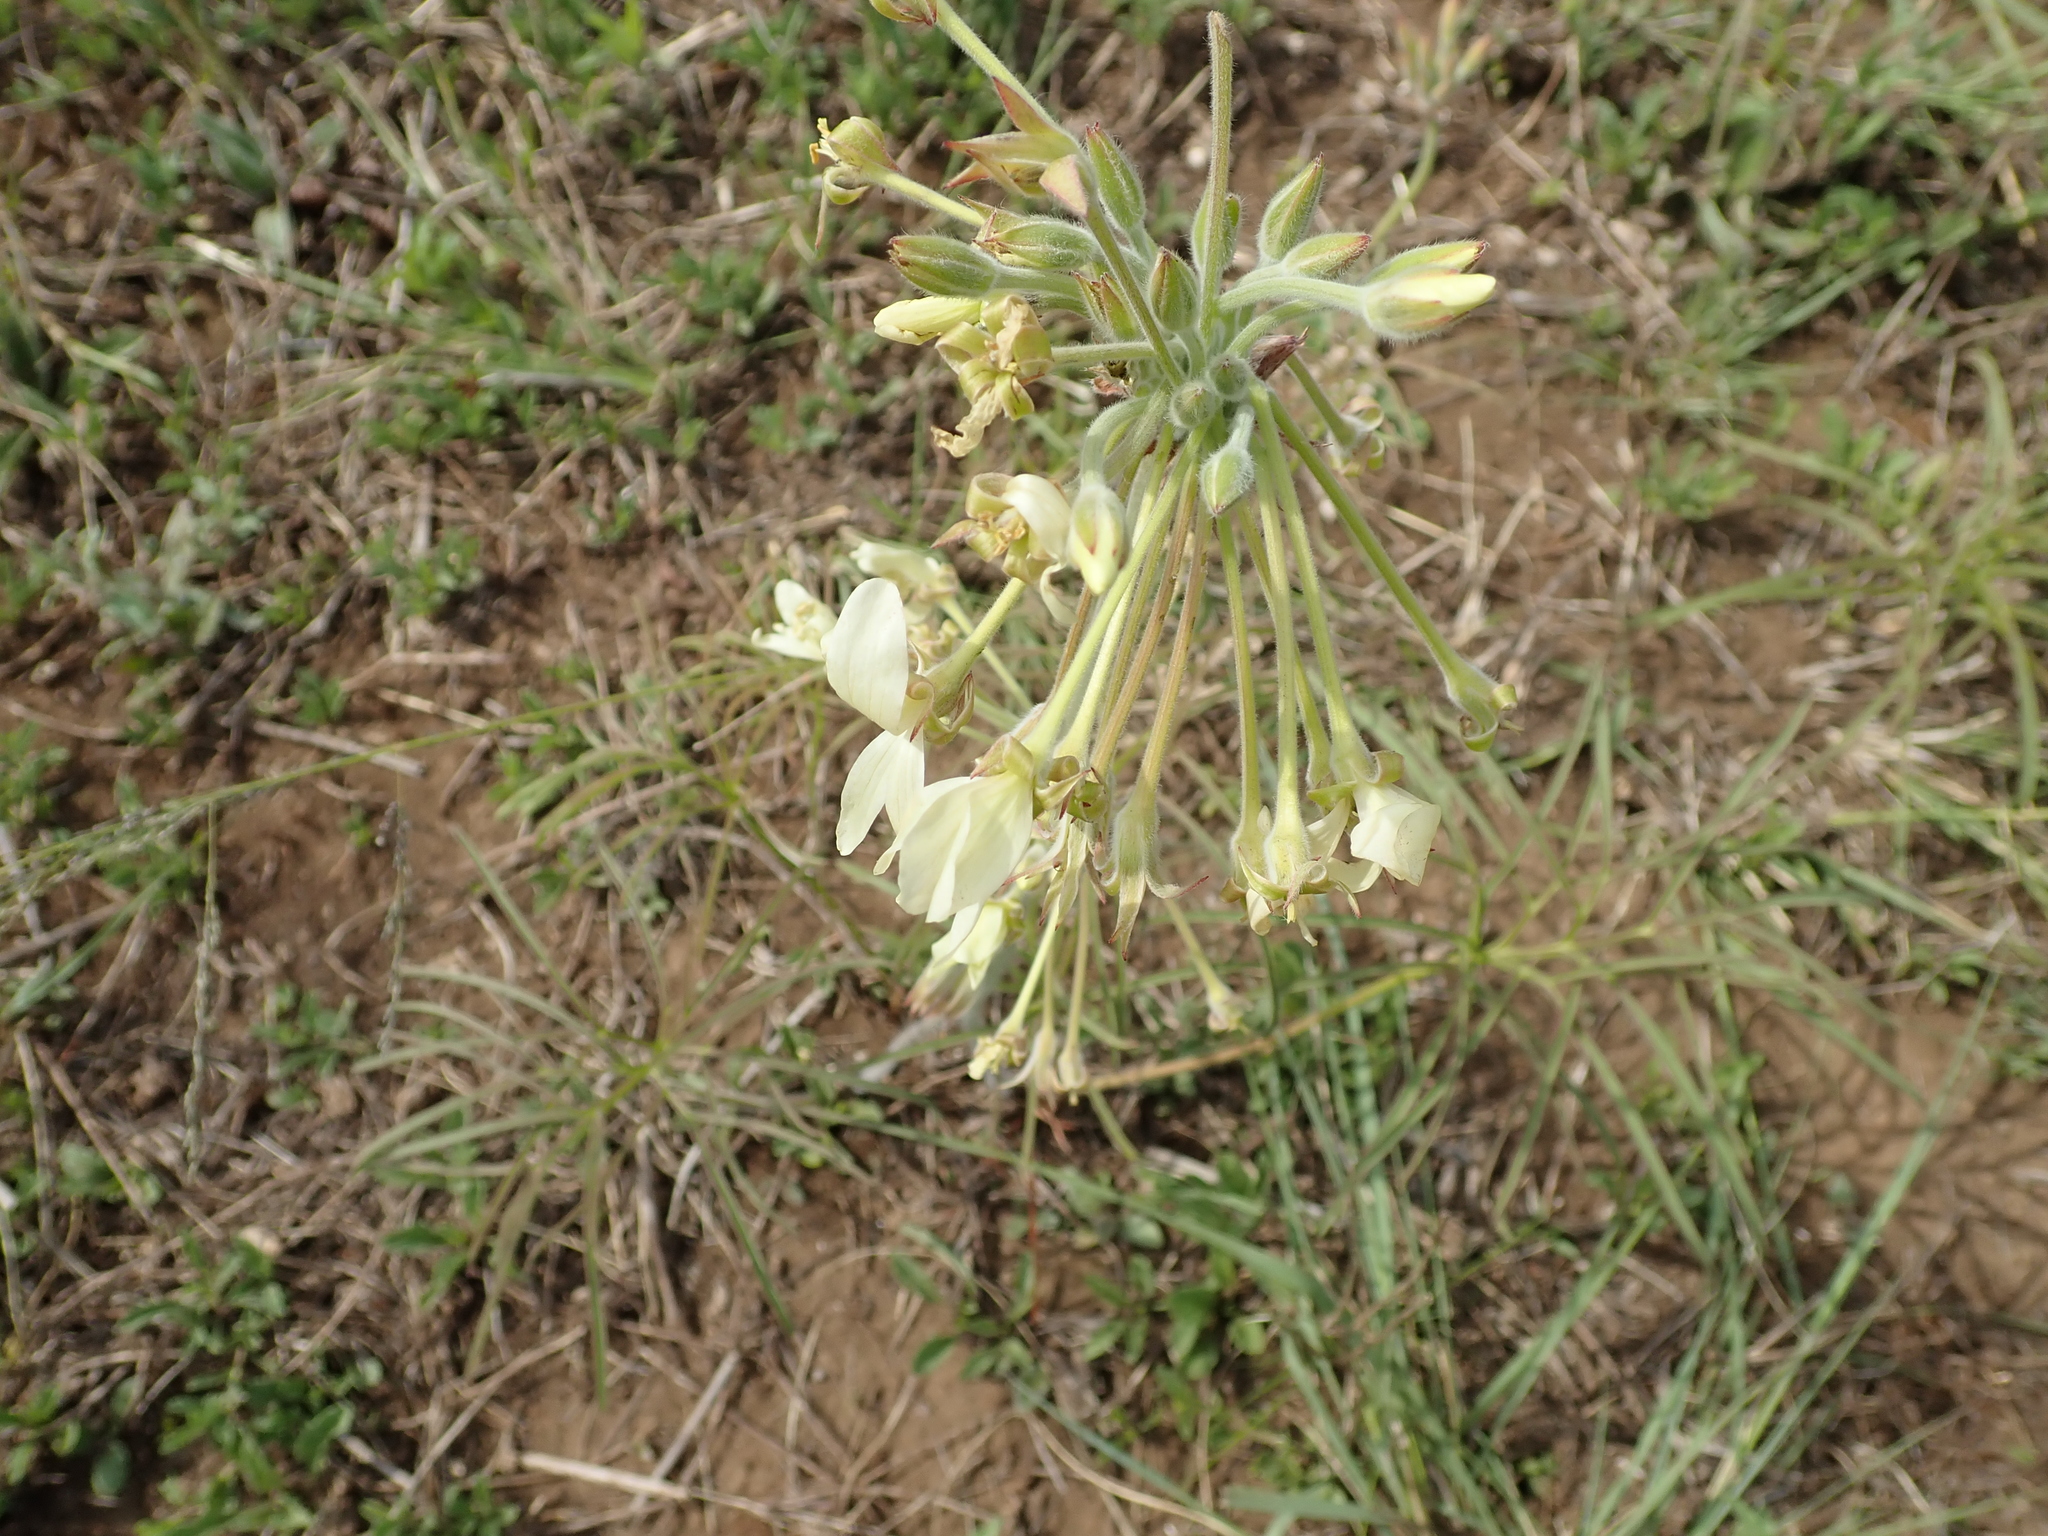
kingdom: Plantae
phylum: Tracheophyta
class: Magnoliopsida
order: Geraniales
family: Geraniaceae
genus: Pelargonium
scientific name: Pelargonium luridum
